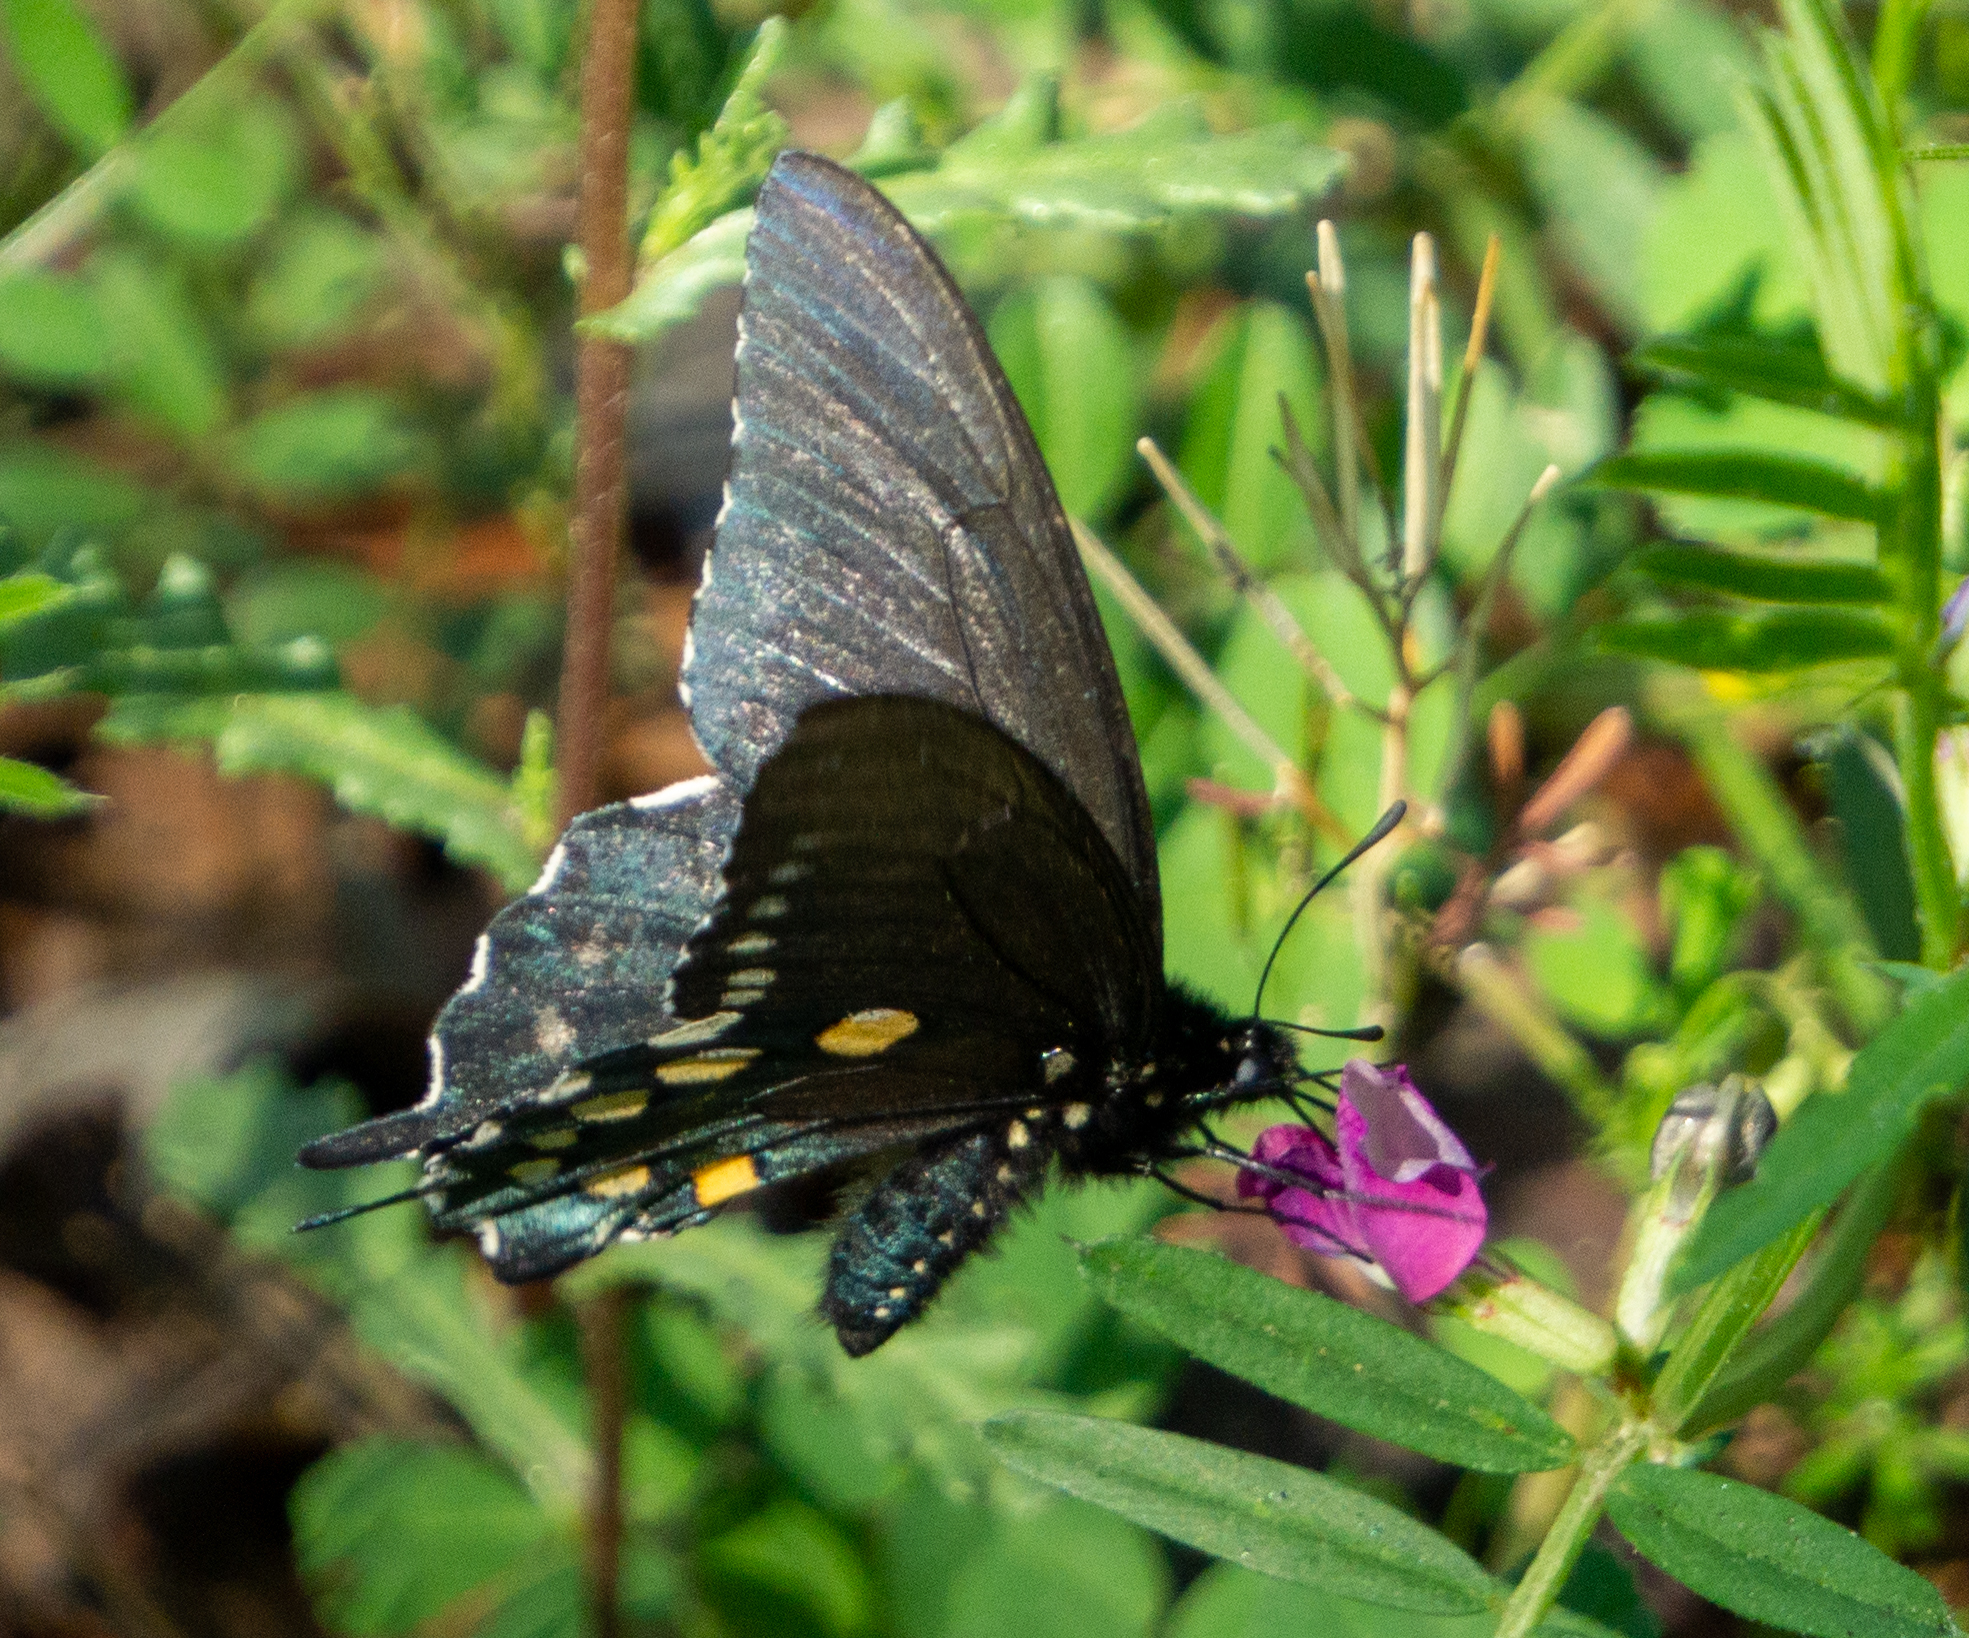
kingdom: Animalia
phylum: Arthropoda
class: Insecta
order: Lepidoptera
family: Papilionidae
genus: Battus
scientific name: Battus philenor
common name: Pipevine swallowtail
